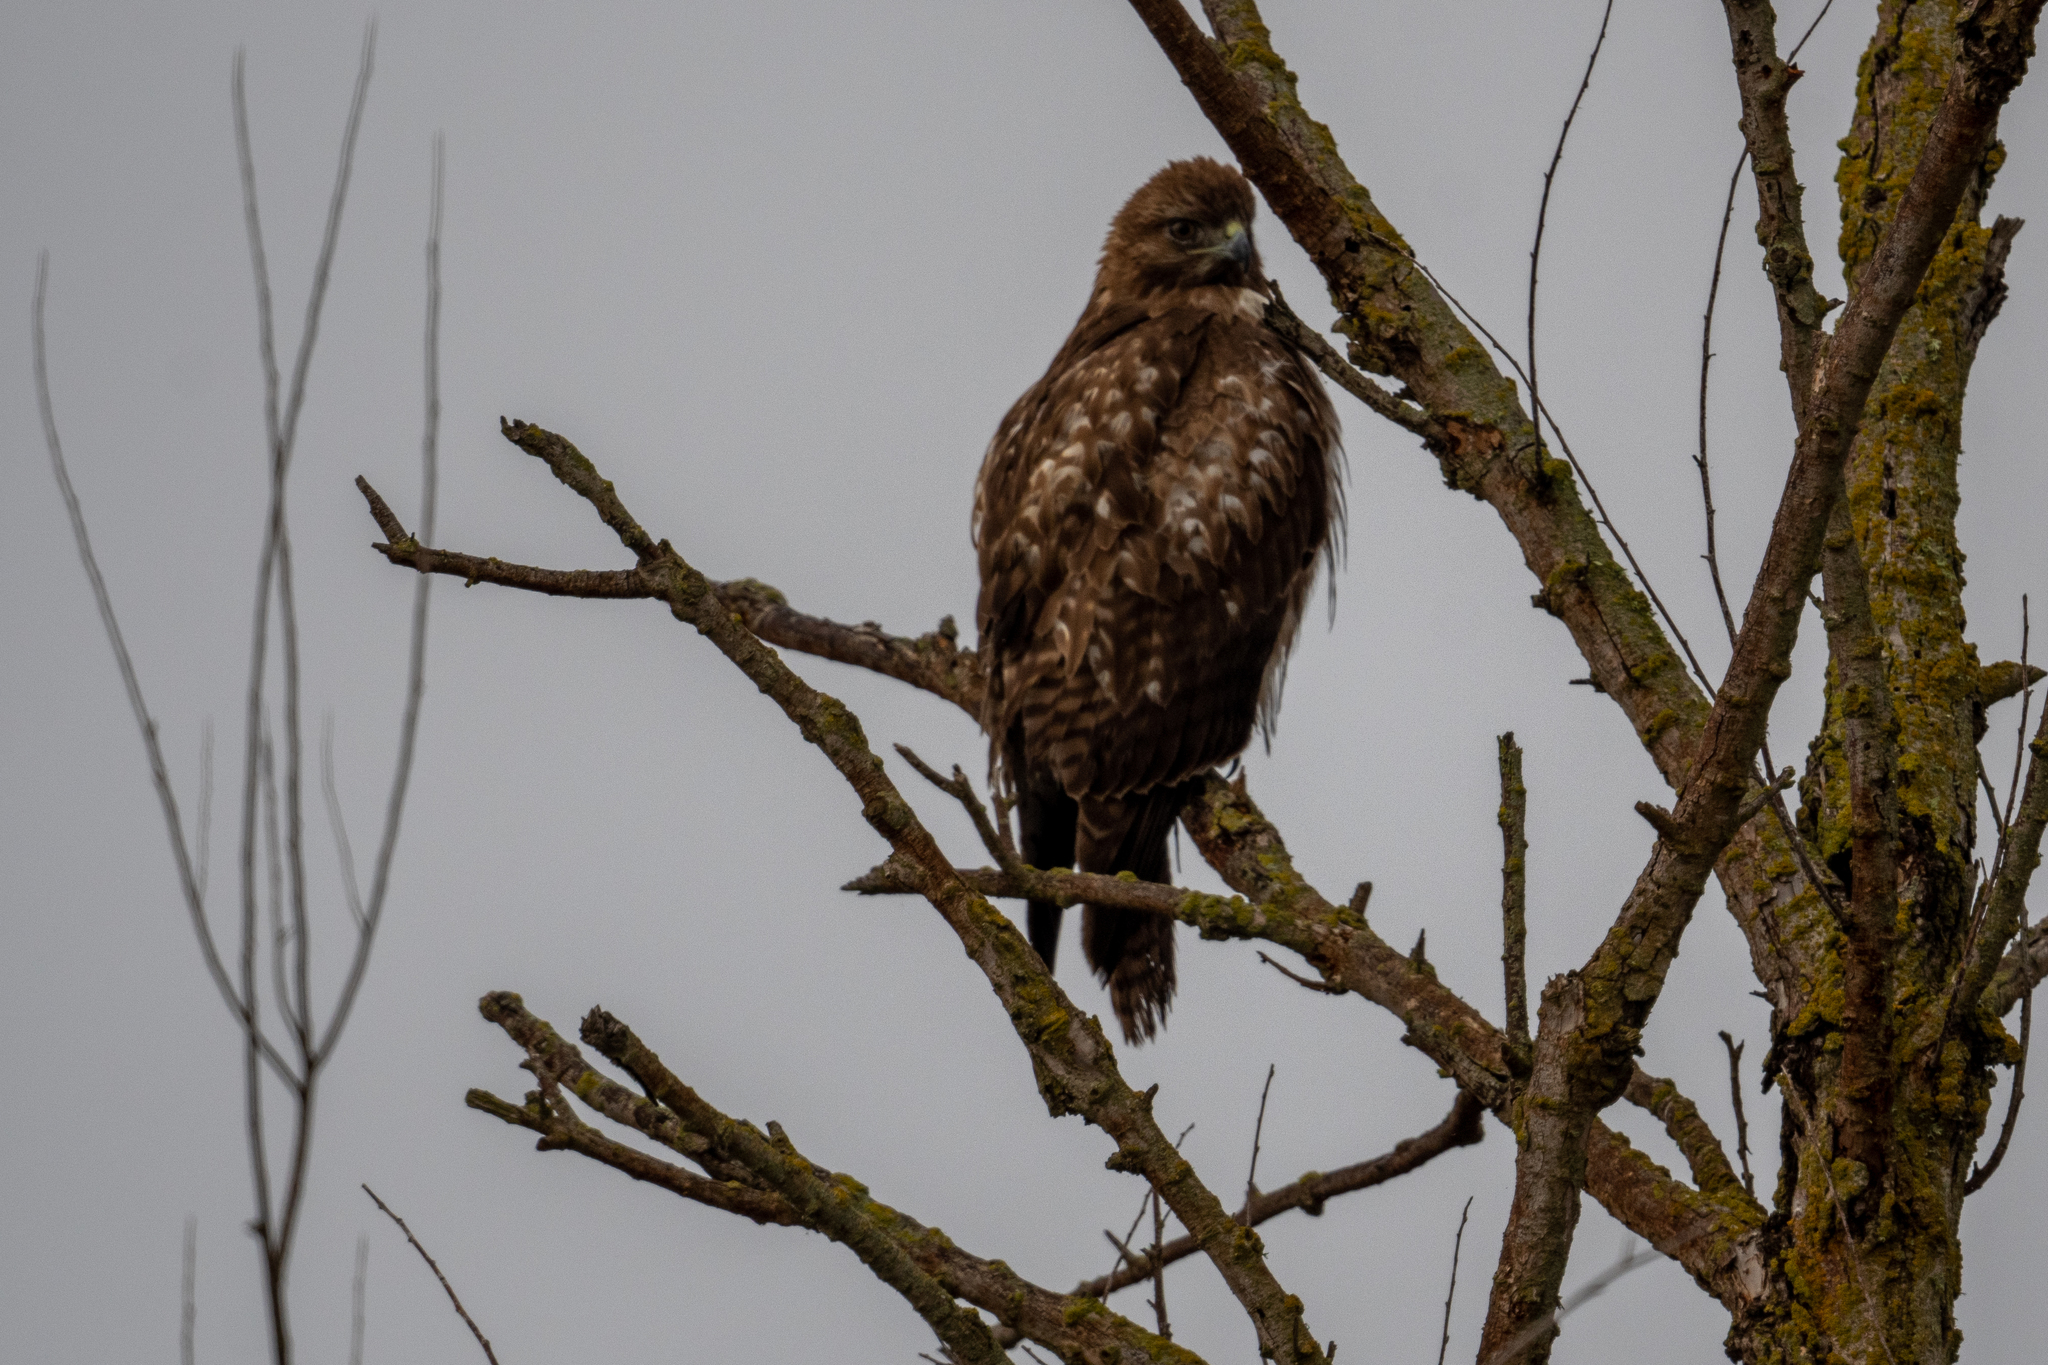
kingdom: Animalia
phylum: Chordata
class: Aves
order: Accipitriformes
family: Accipitridae
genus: Buteo
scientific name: Buteo jamaicensis
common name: Red-tailed hawk
